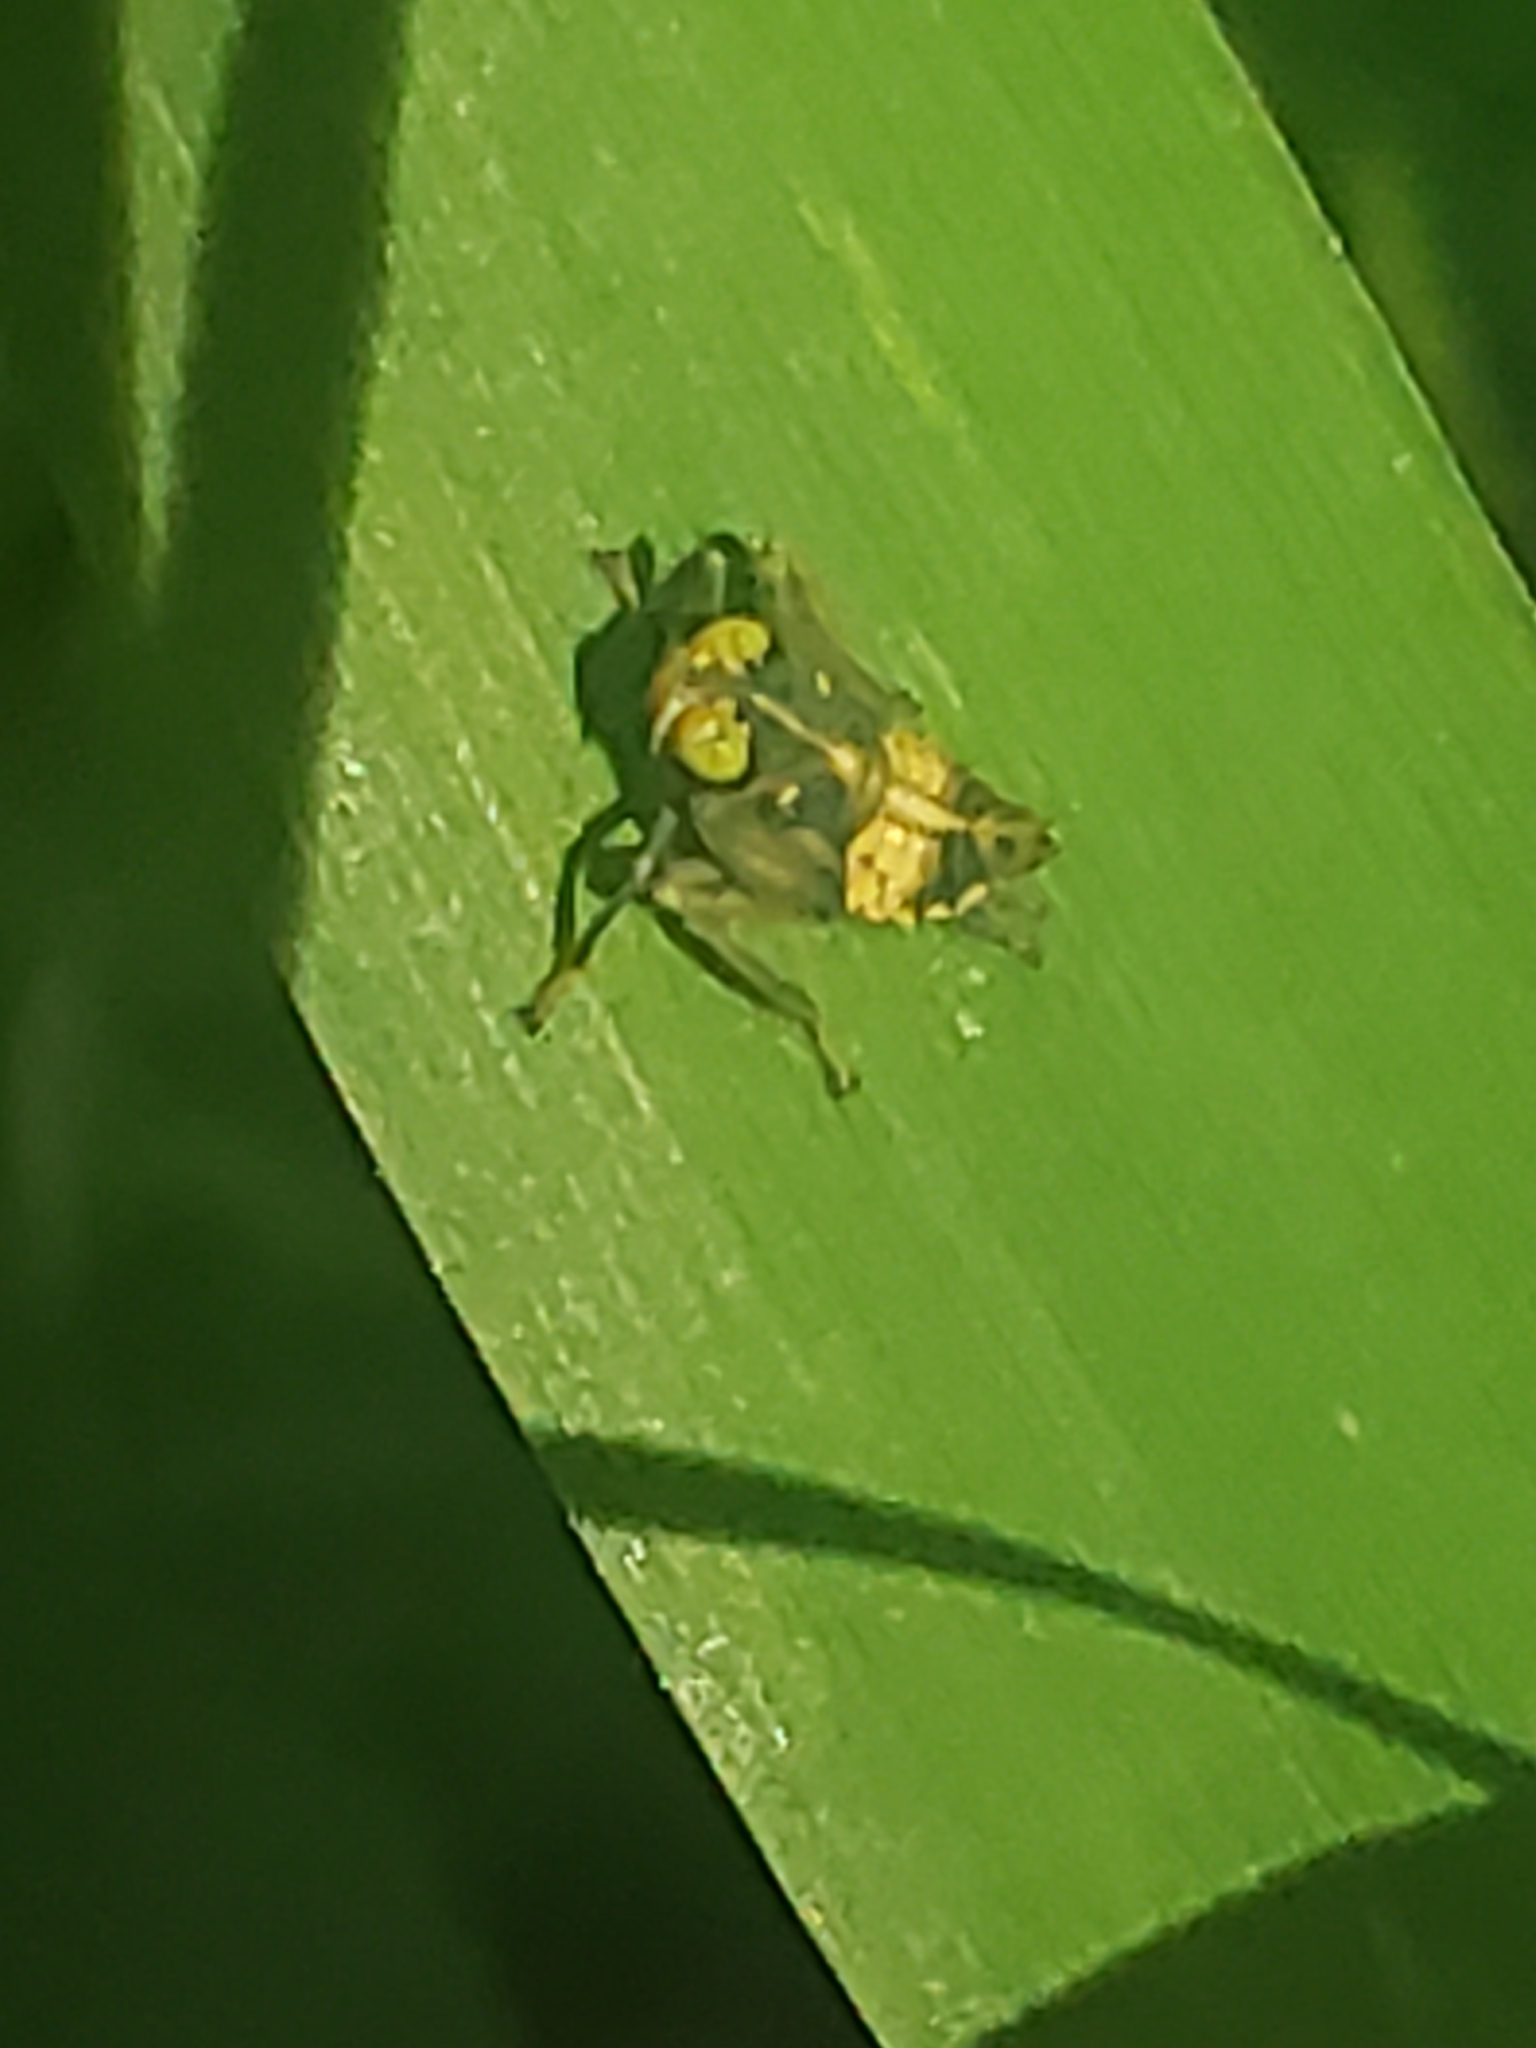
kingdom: Animalia
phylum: Arthropoda
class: Insecta
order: Hemiptera
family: Cicadellidae
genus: Jikradia
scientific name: Jikradia olitoria
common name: Coppery leafhopper
